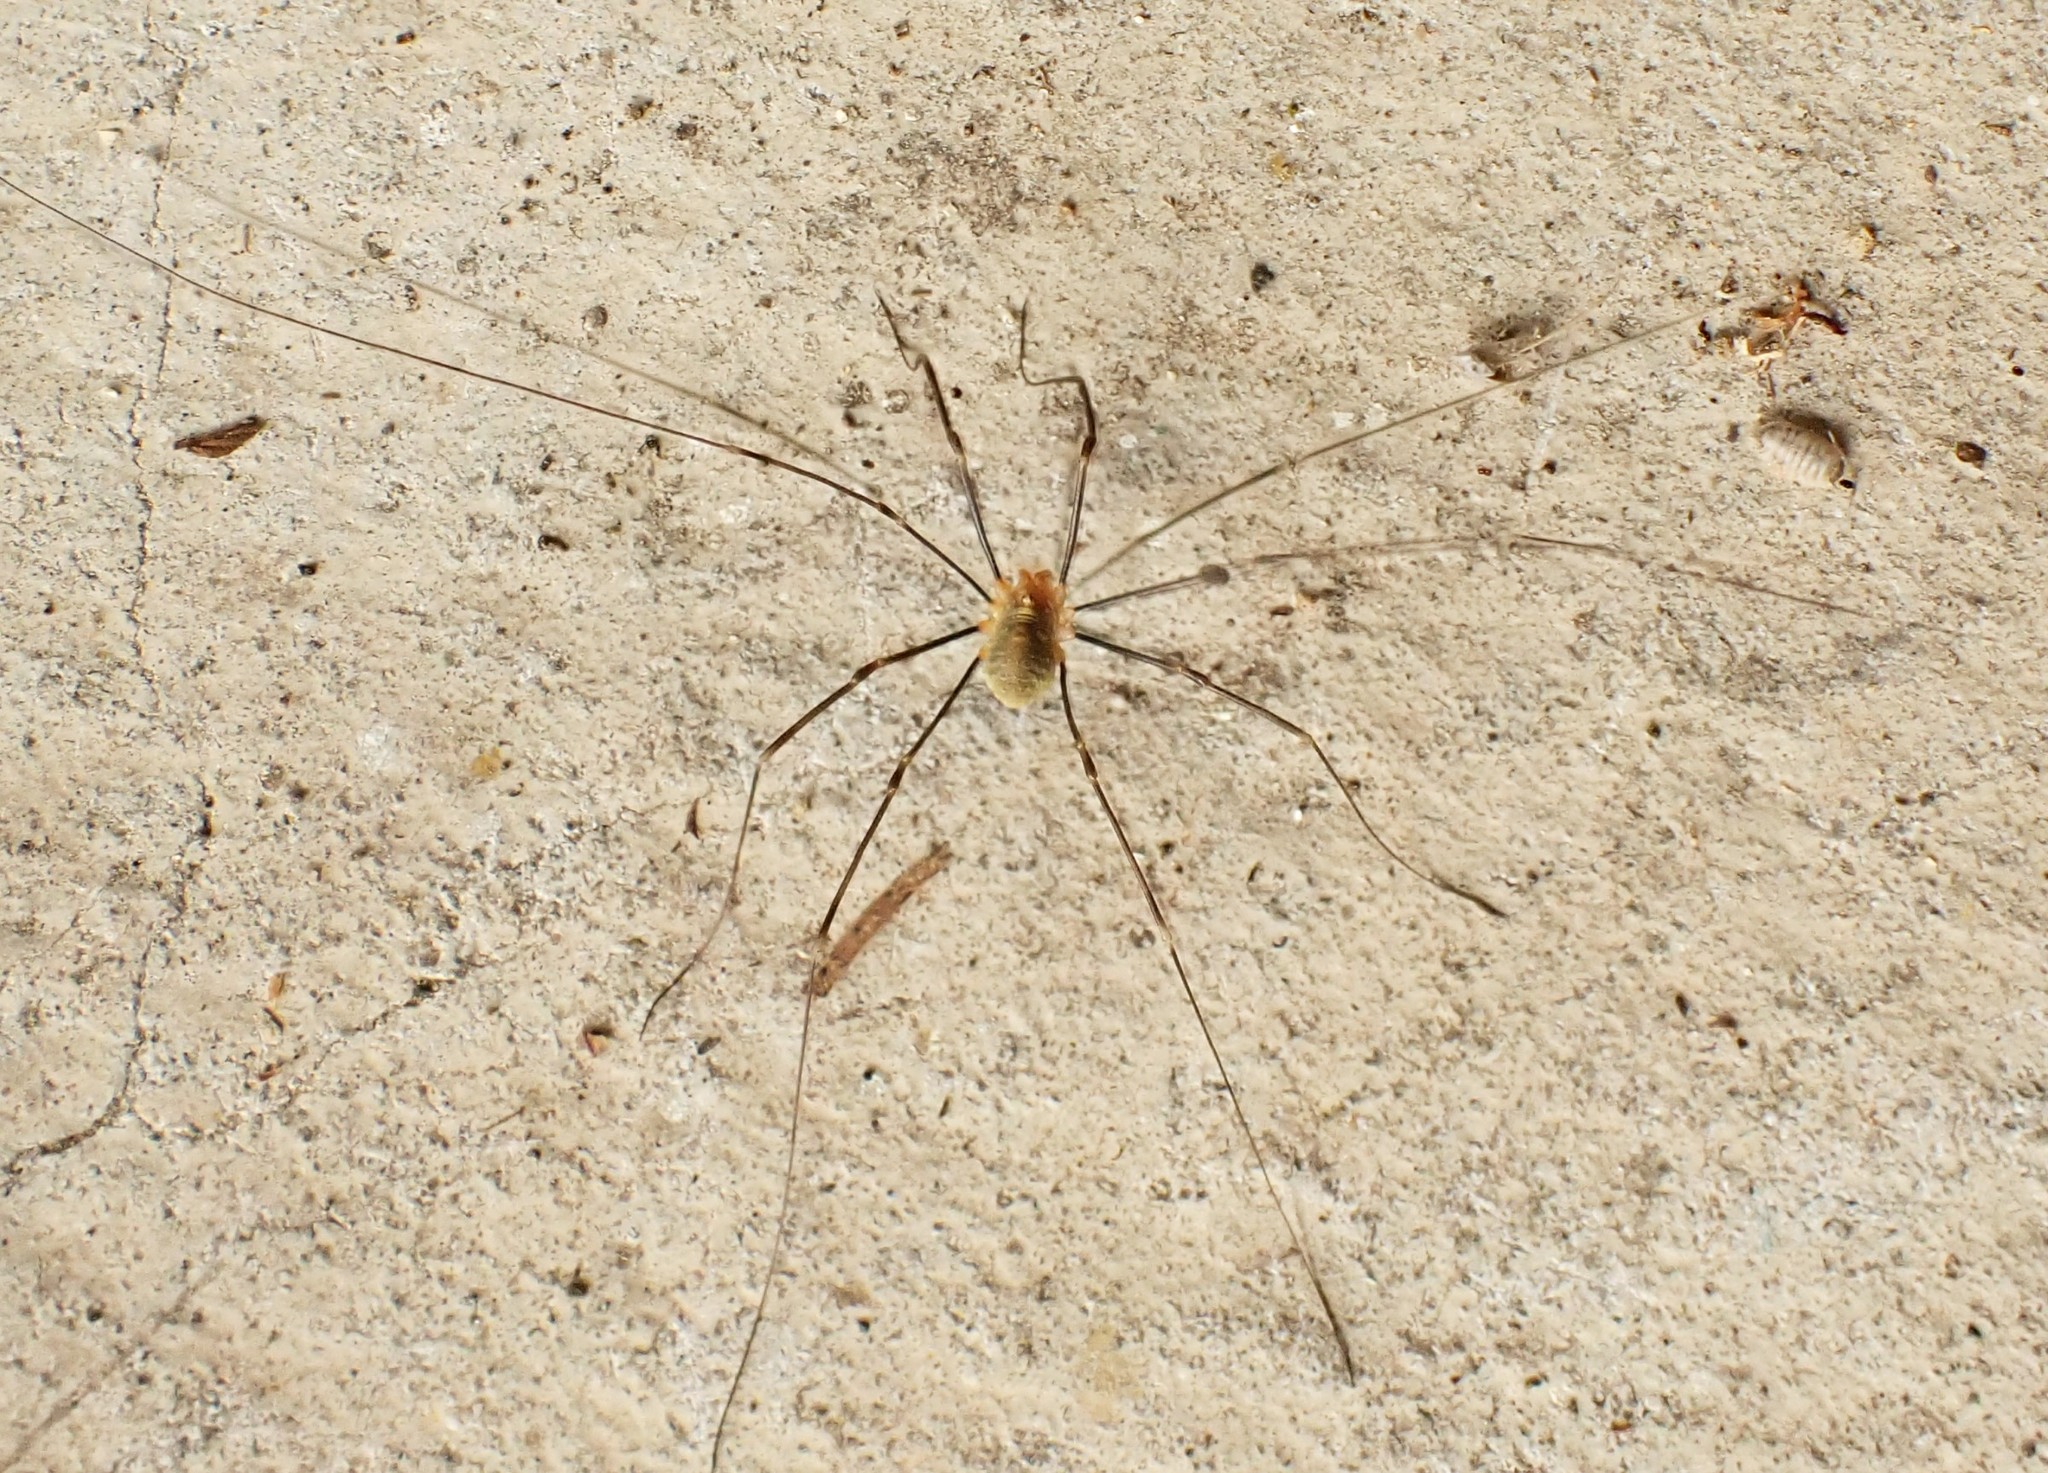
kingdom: Animalia
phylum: Arthropoda
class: Arachnida
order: Opiliones
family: Phalangiidae
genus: Opilio
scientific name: Opilio canestrinii
